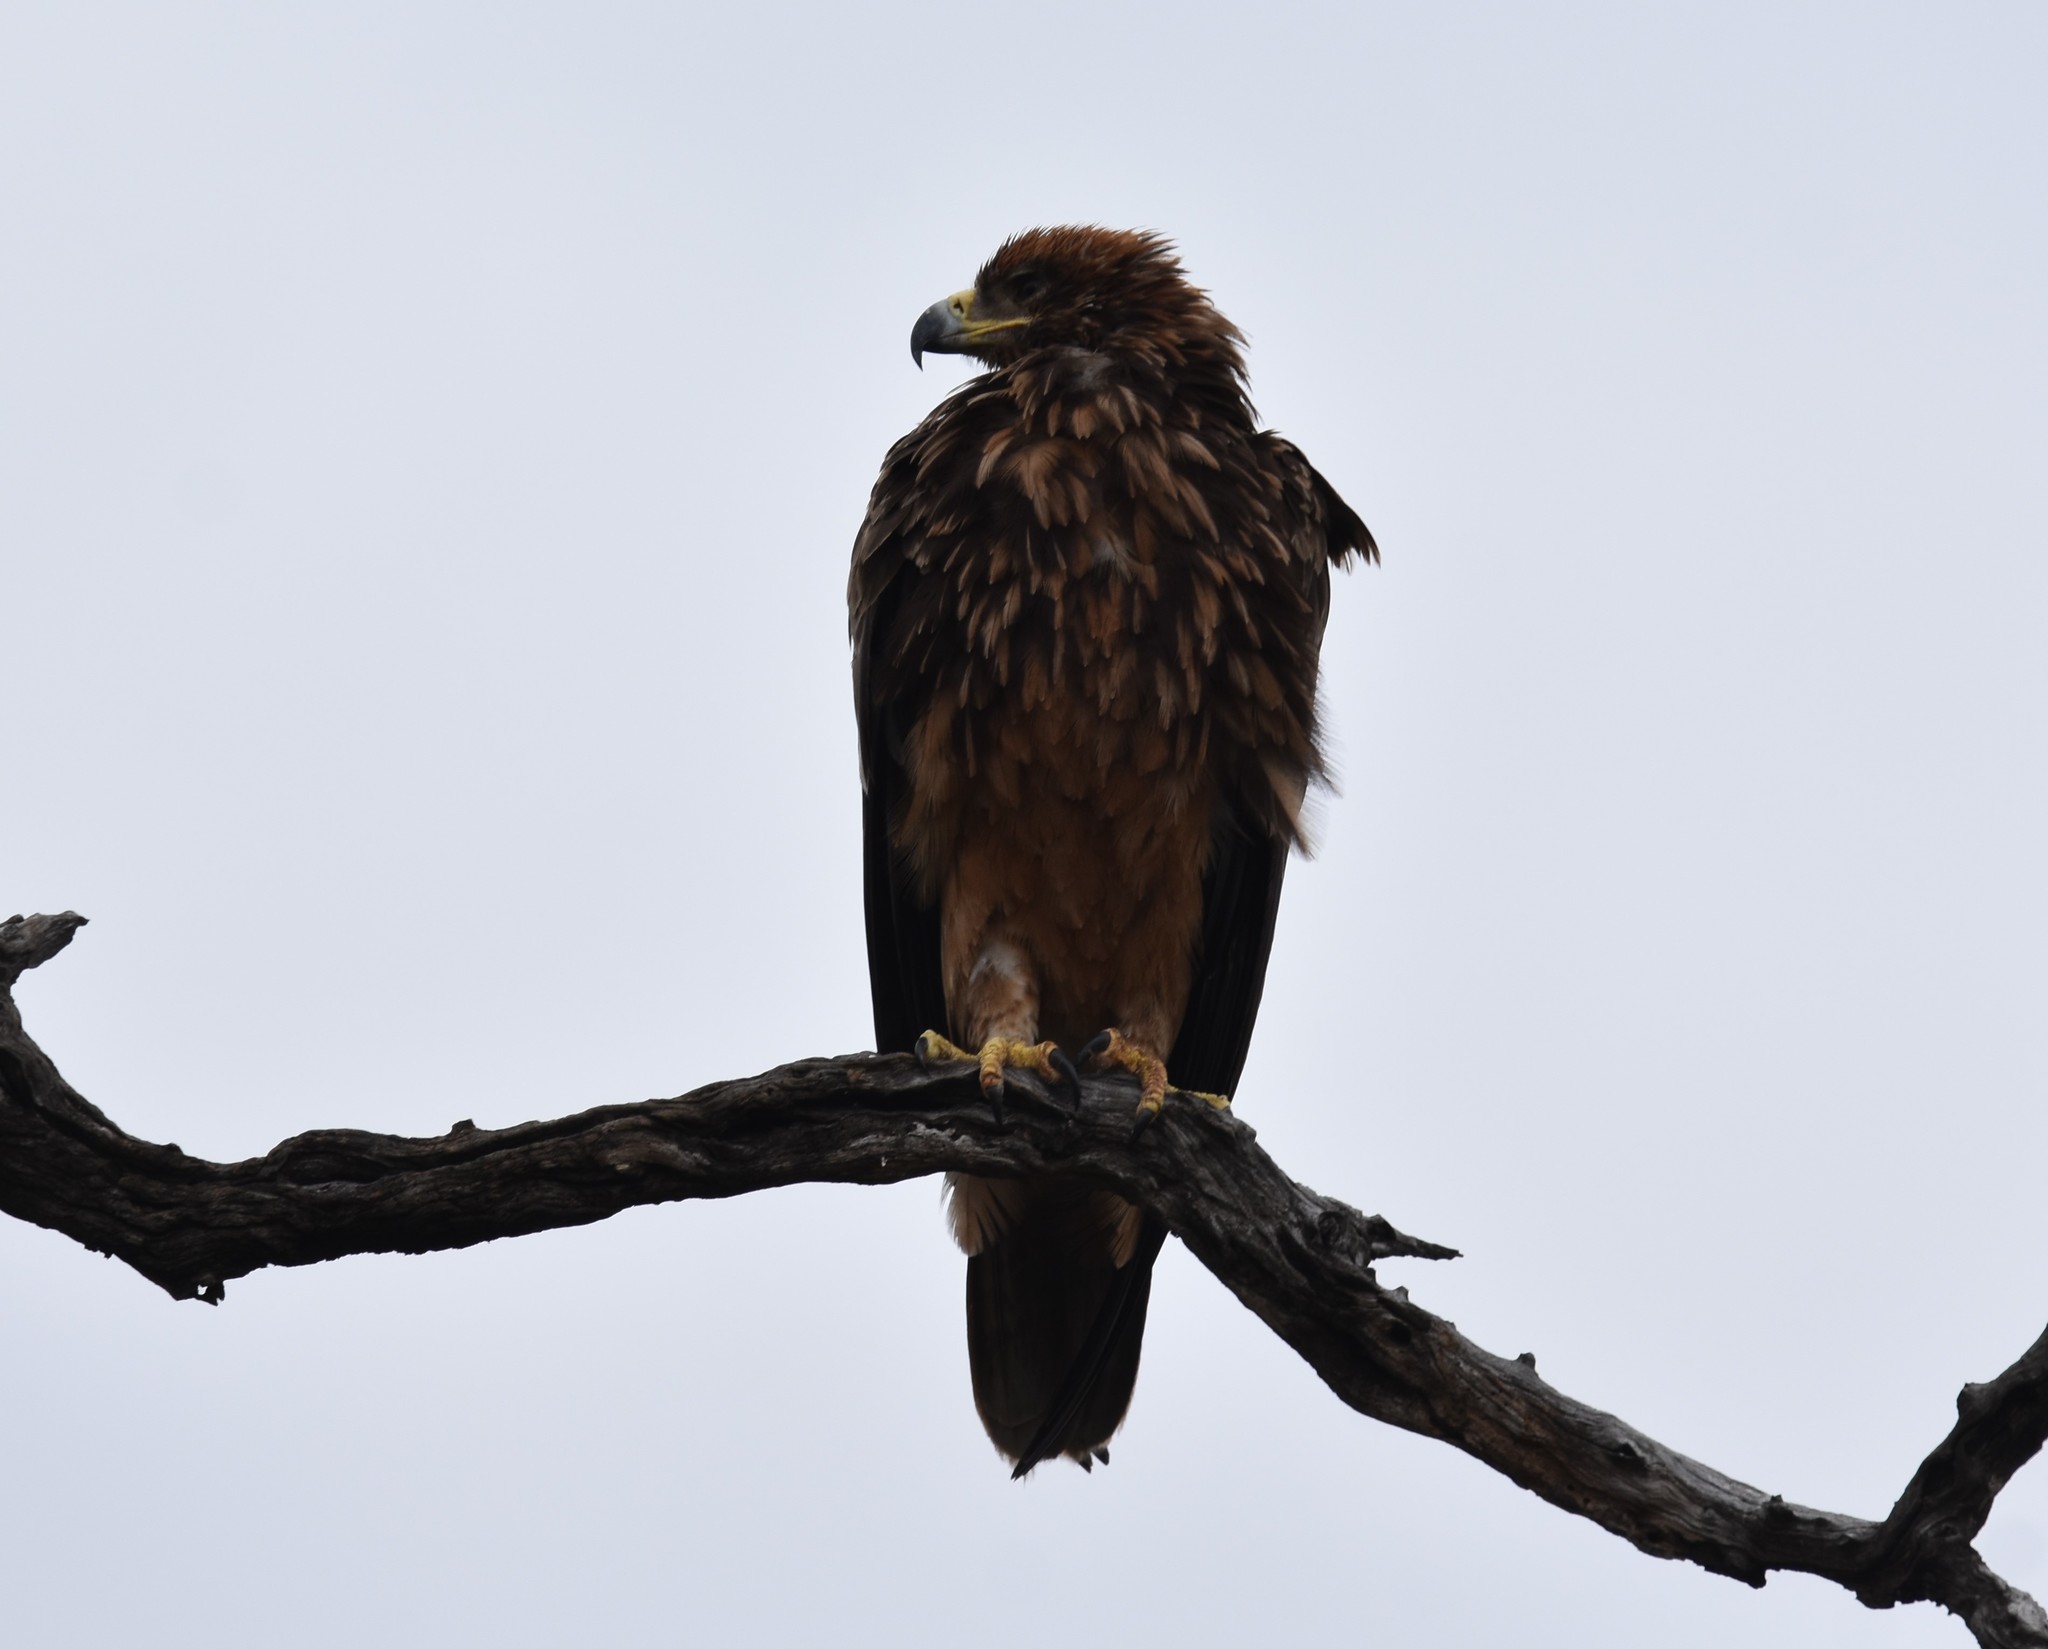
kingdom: Animalia
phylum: Chordata
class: Aves
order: Accipitriformes
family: Accipitridae
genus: Aquila
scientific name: Aquila rapax
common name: Tawny eagle
